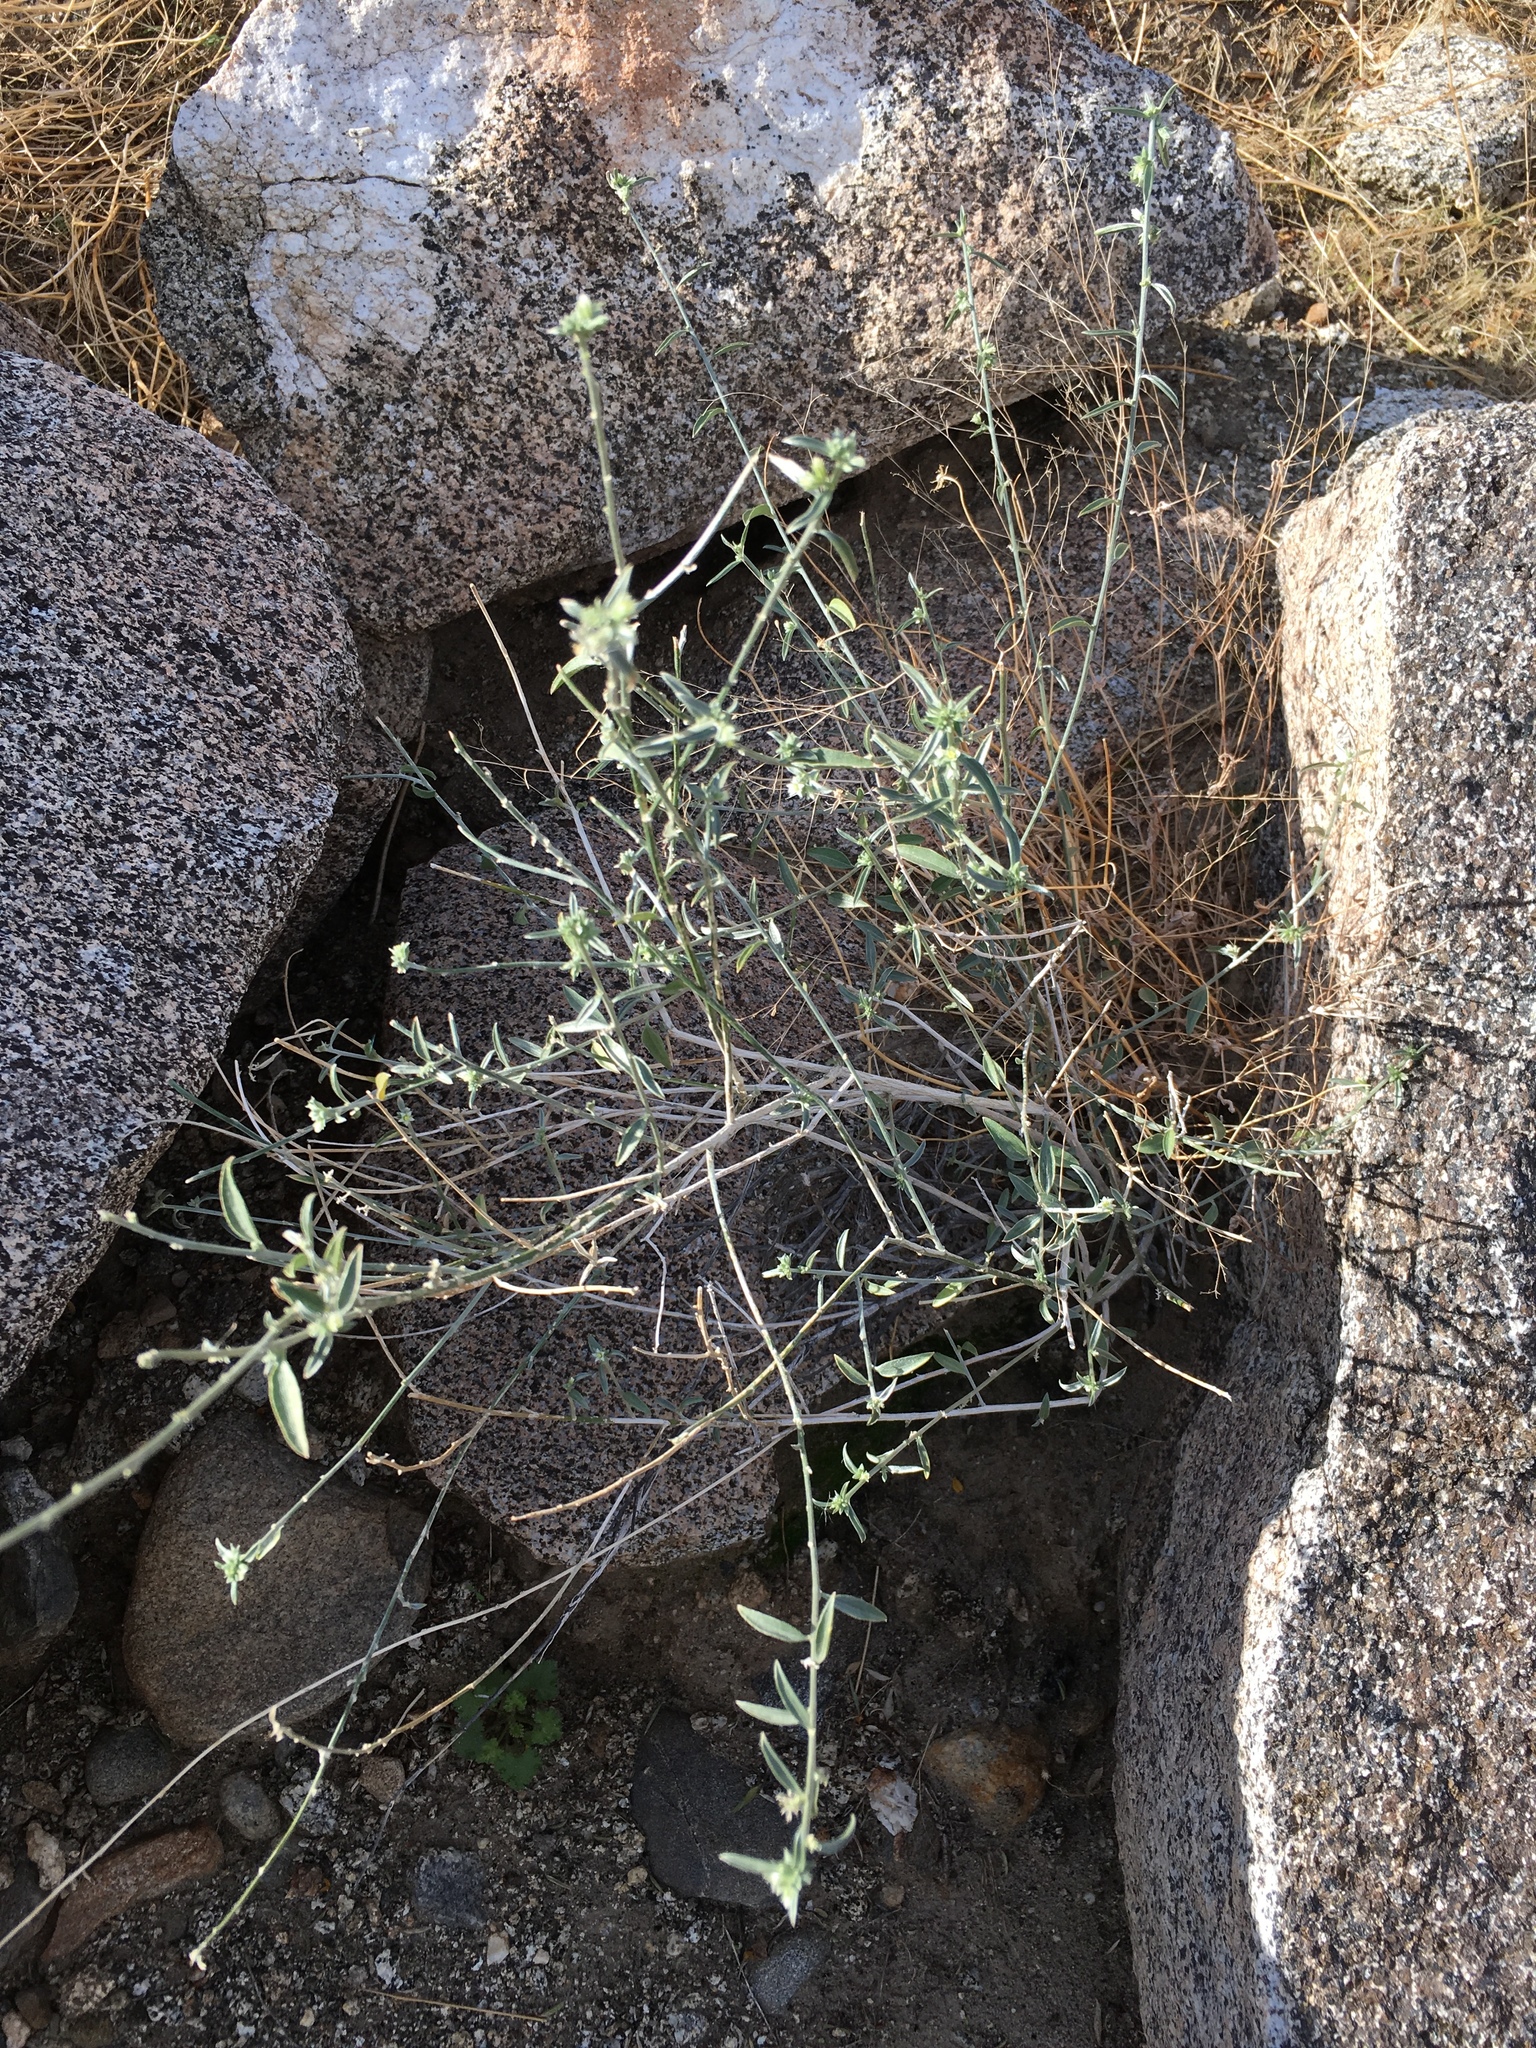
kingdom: Plantae
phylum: Tracheophyta
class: Magnoliopsida
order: Malpighiales
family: Euphorbiaceae
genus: Ditaxis
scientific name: Ditaxis lanceolata
